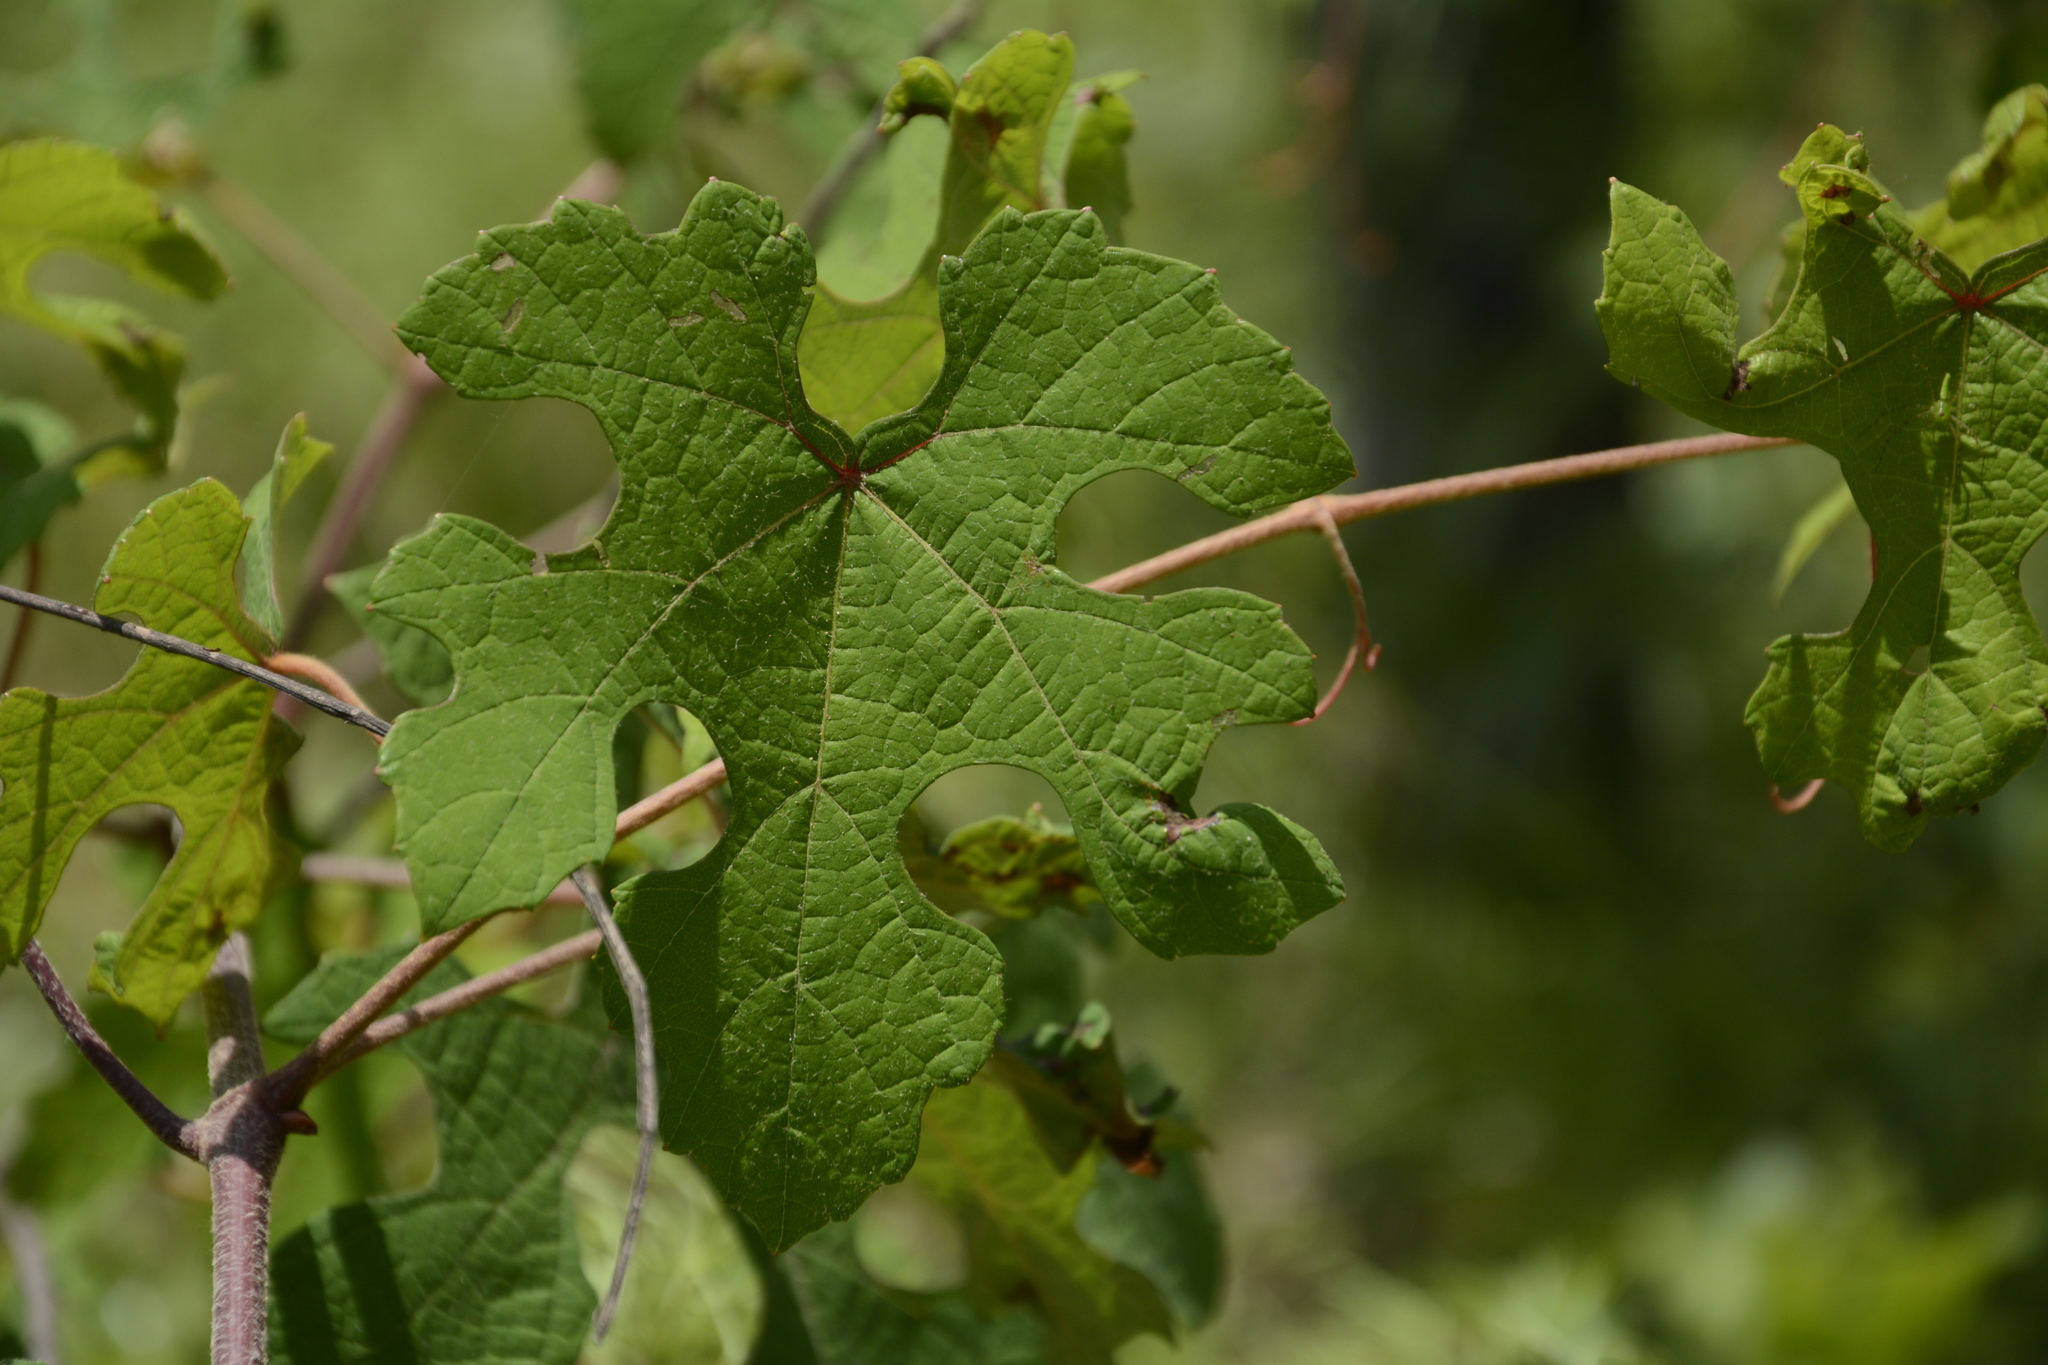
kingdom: Plantae
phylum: Tracheophyta
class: Magnoliopsida
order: Vitales
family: Vitaceae
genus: Vitis
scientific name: Vitis aestivalis
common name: Pigeon grape
